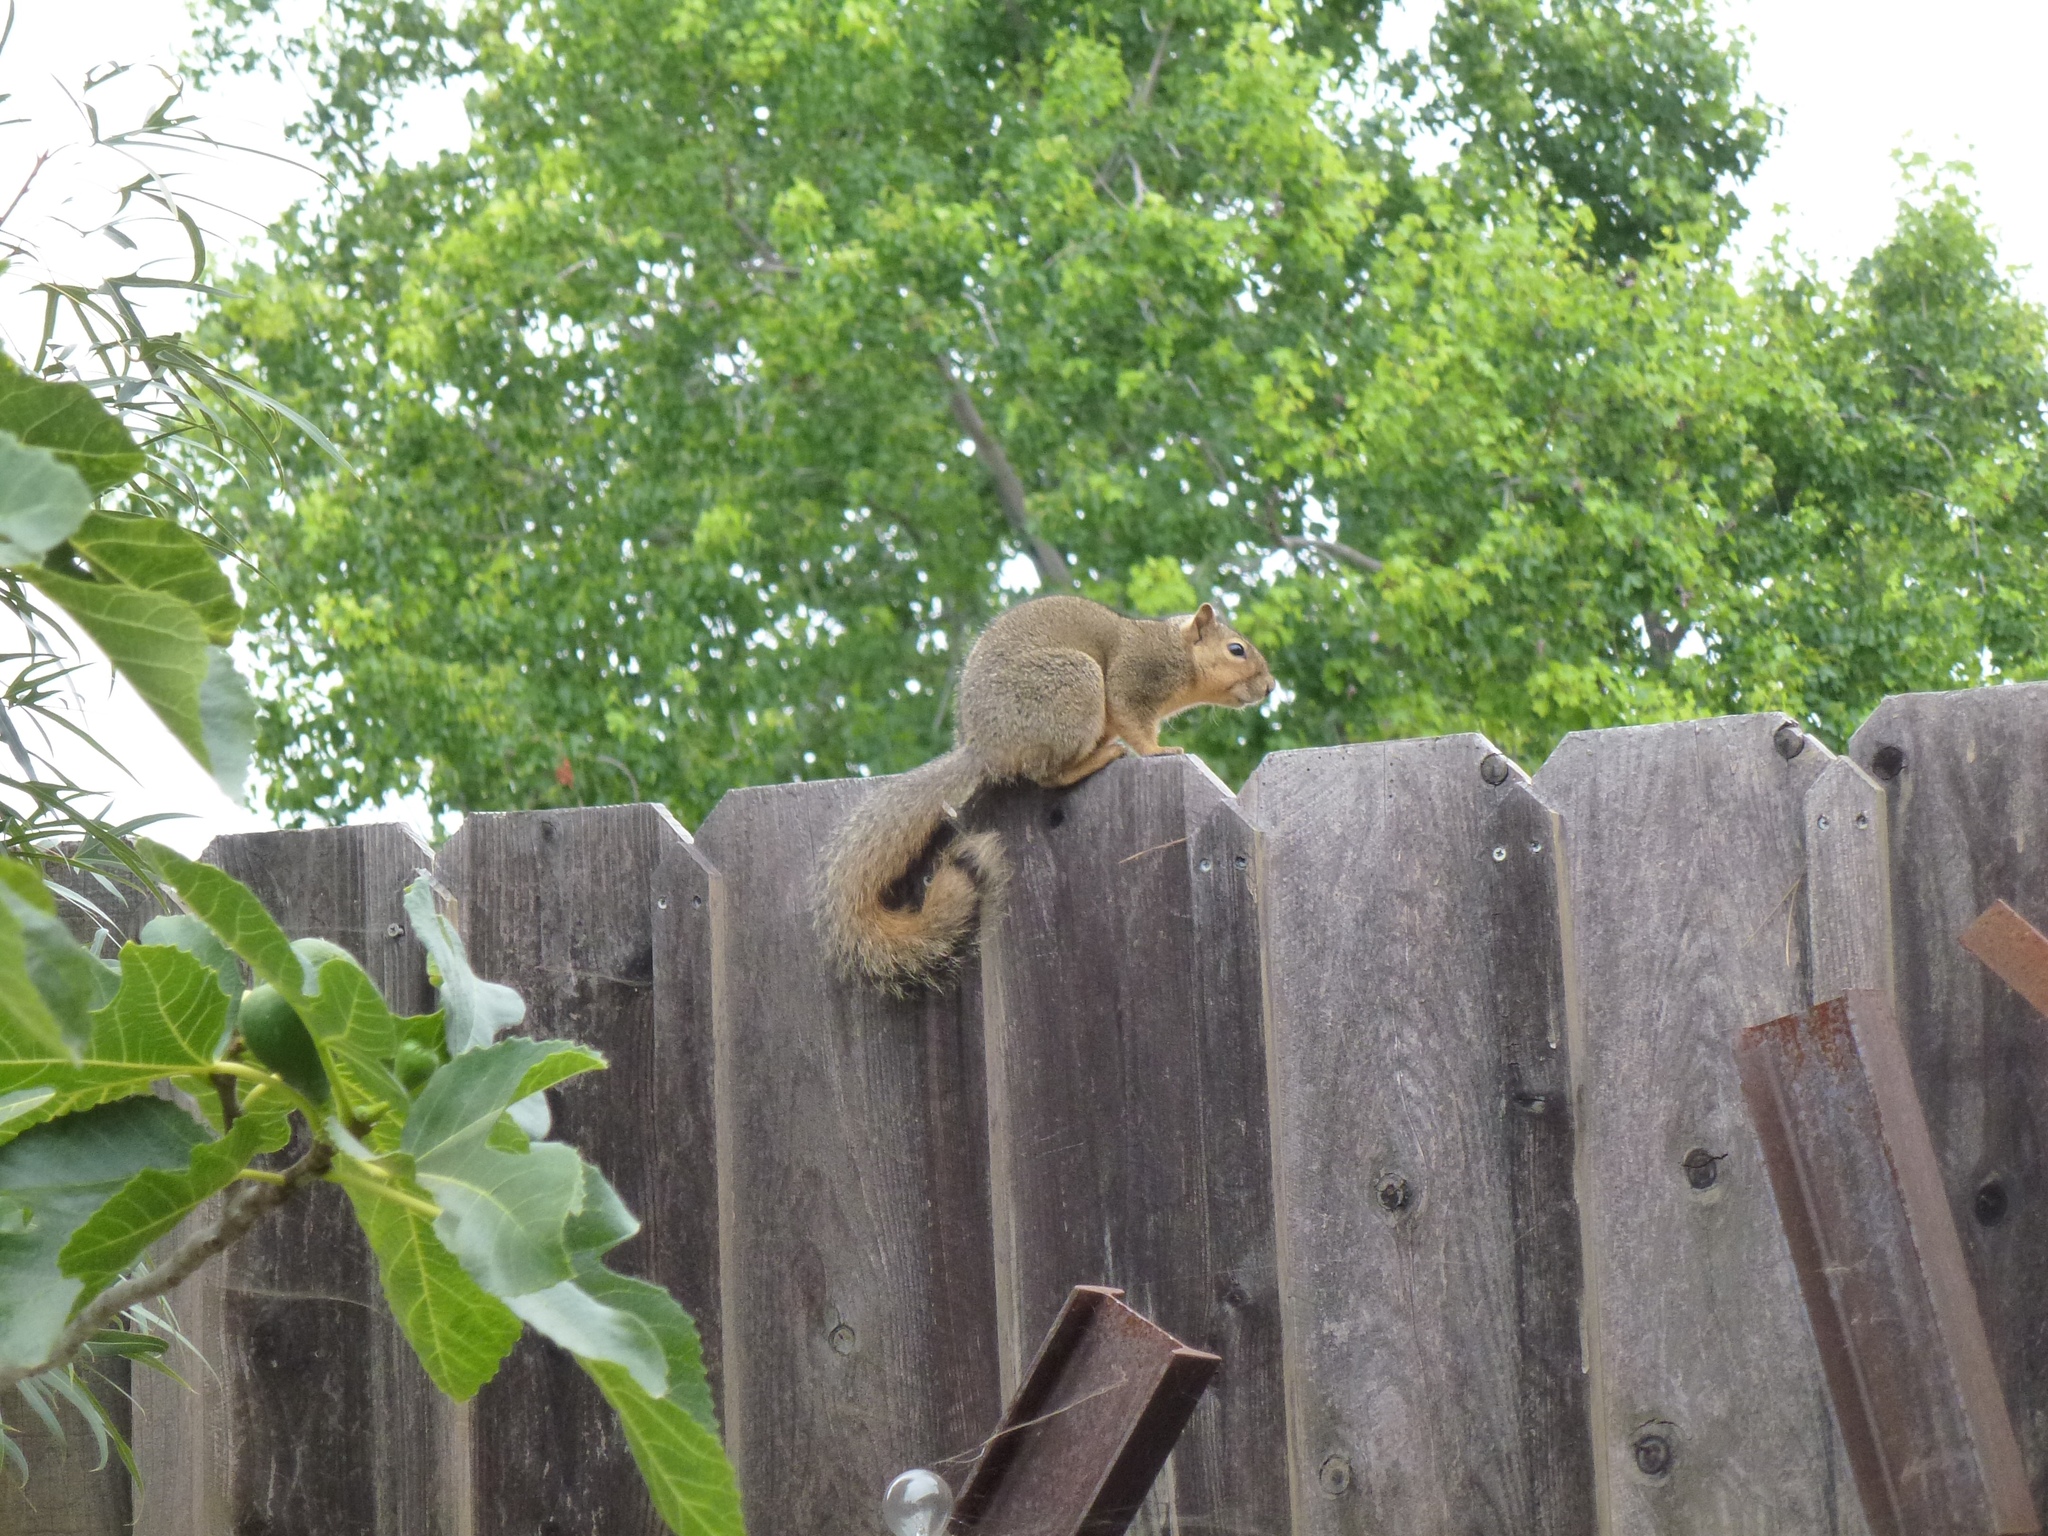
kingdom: Animalia
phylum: Chordata
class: Mammalia
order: Rodentia
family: Sciuridae
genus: Sciurus
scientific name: Sciurus niger
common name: Fox squirrel
